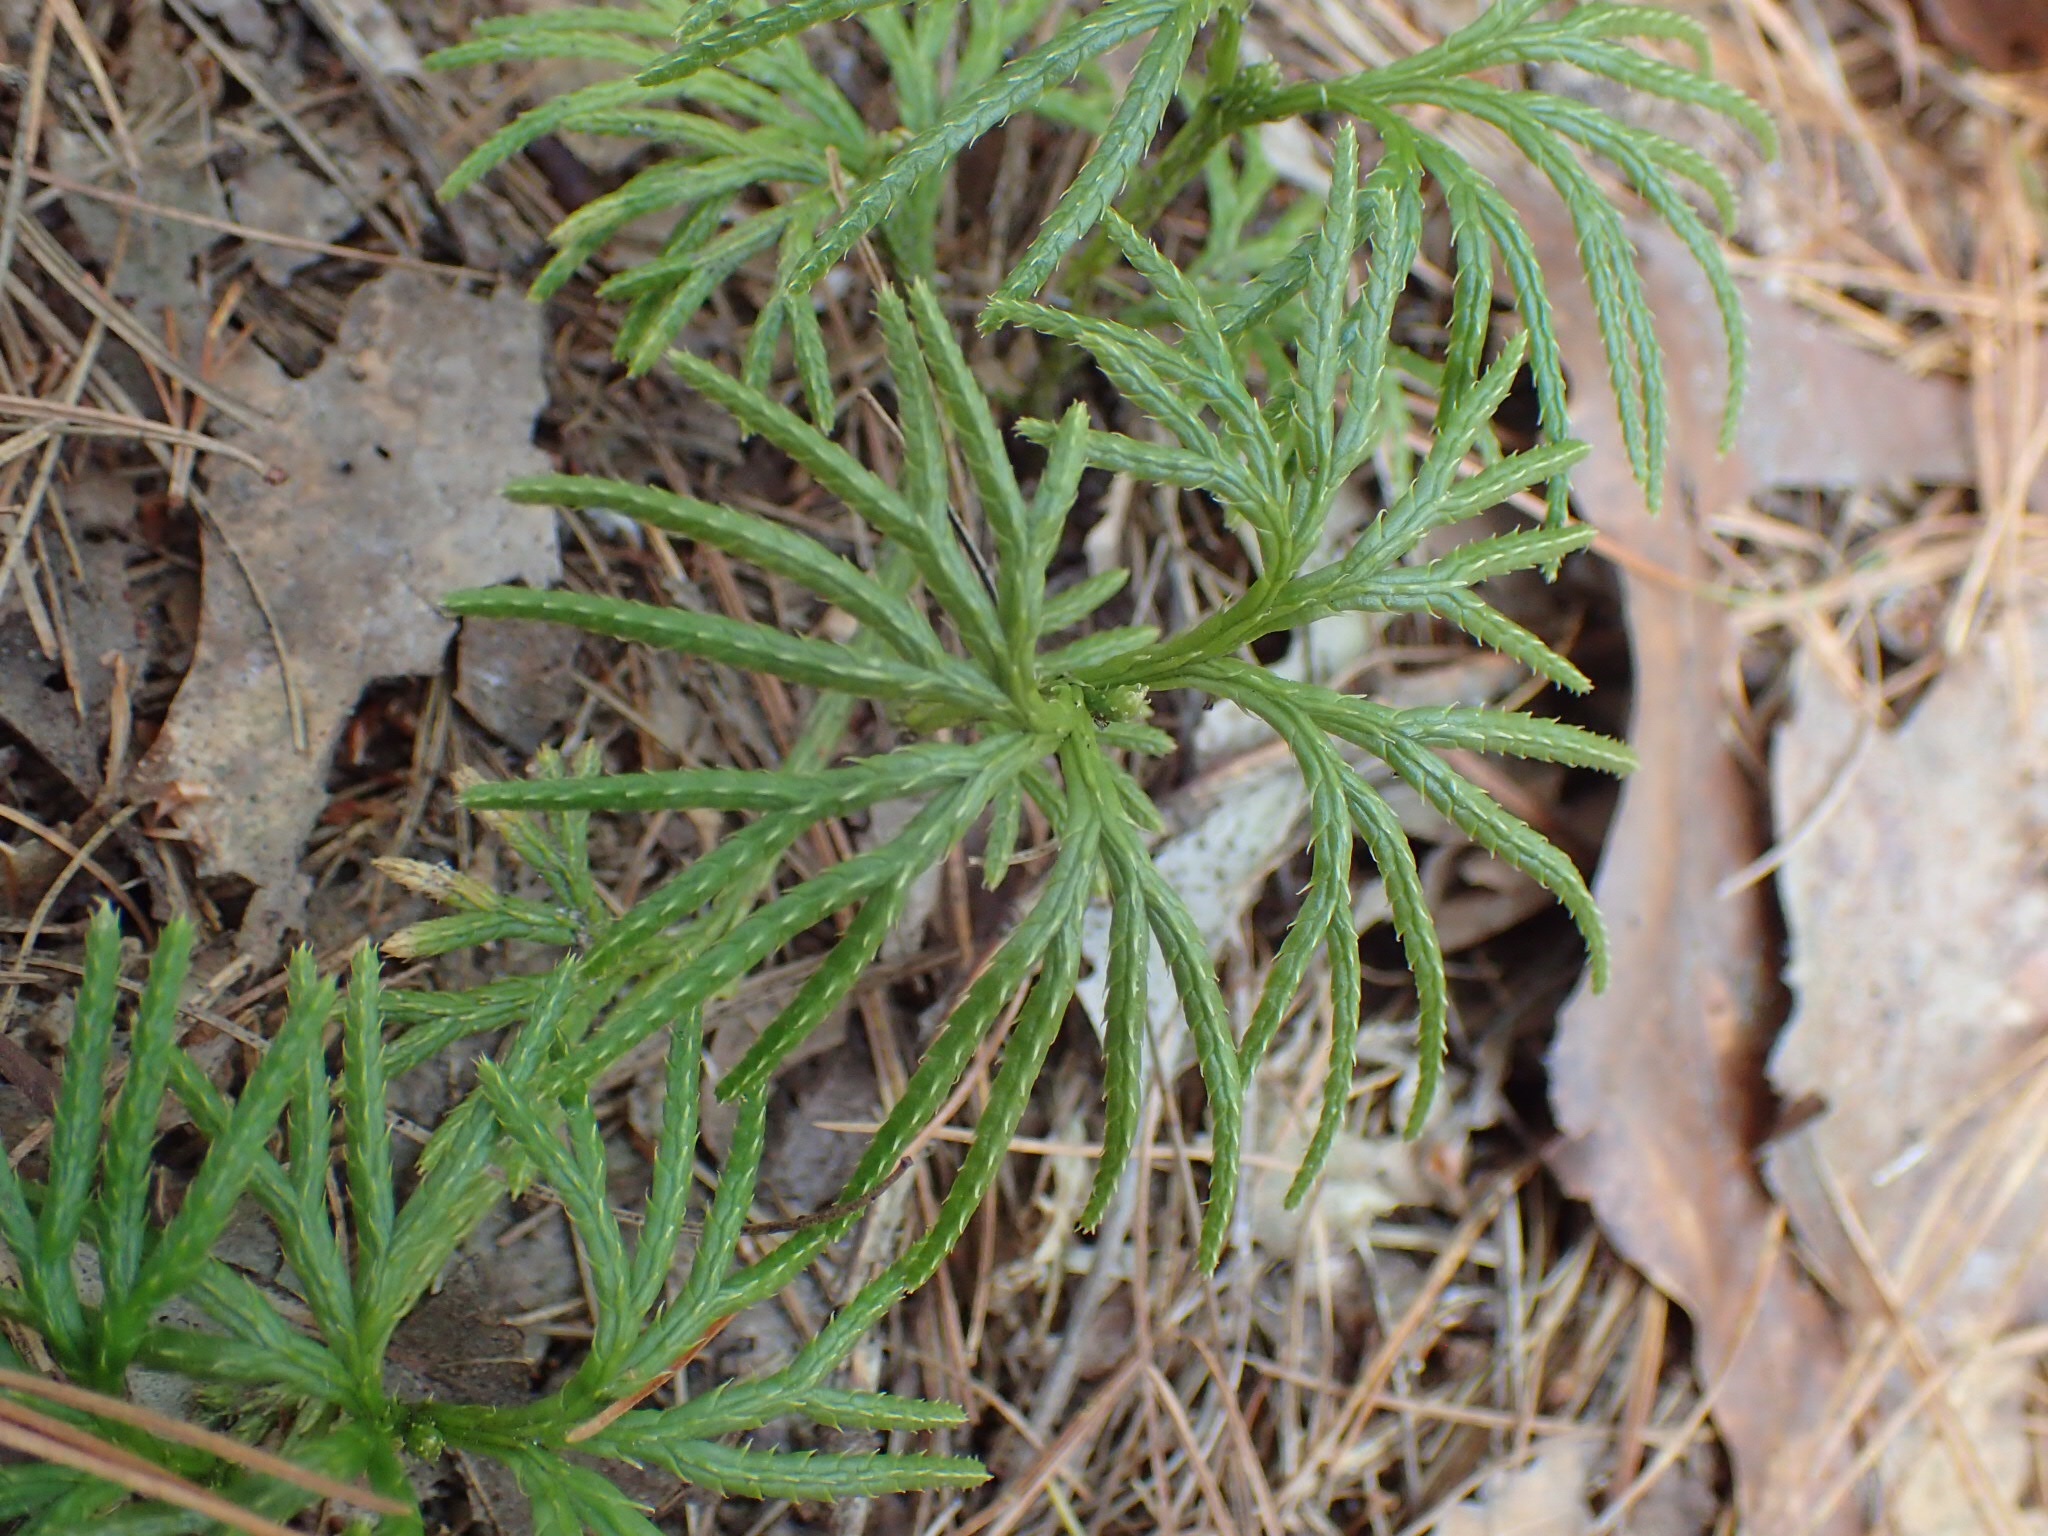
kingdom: Plantae
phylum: Tracheophyta
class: Lycopodiopsida
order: Lycopodiales
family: Lycopodiaceae
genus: Diphasiastrum
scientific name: Diphasiastrum digitatum
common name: Southern running-pine
